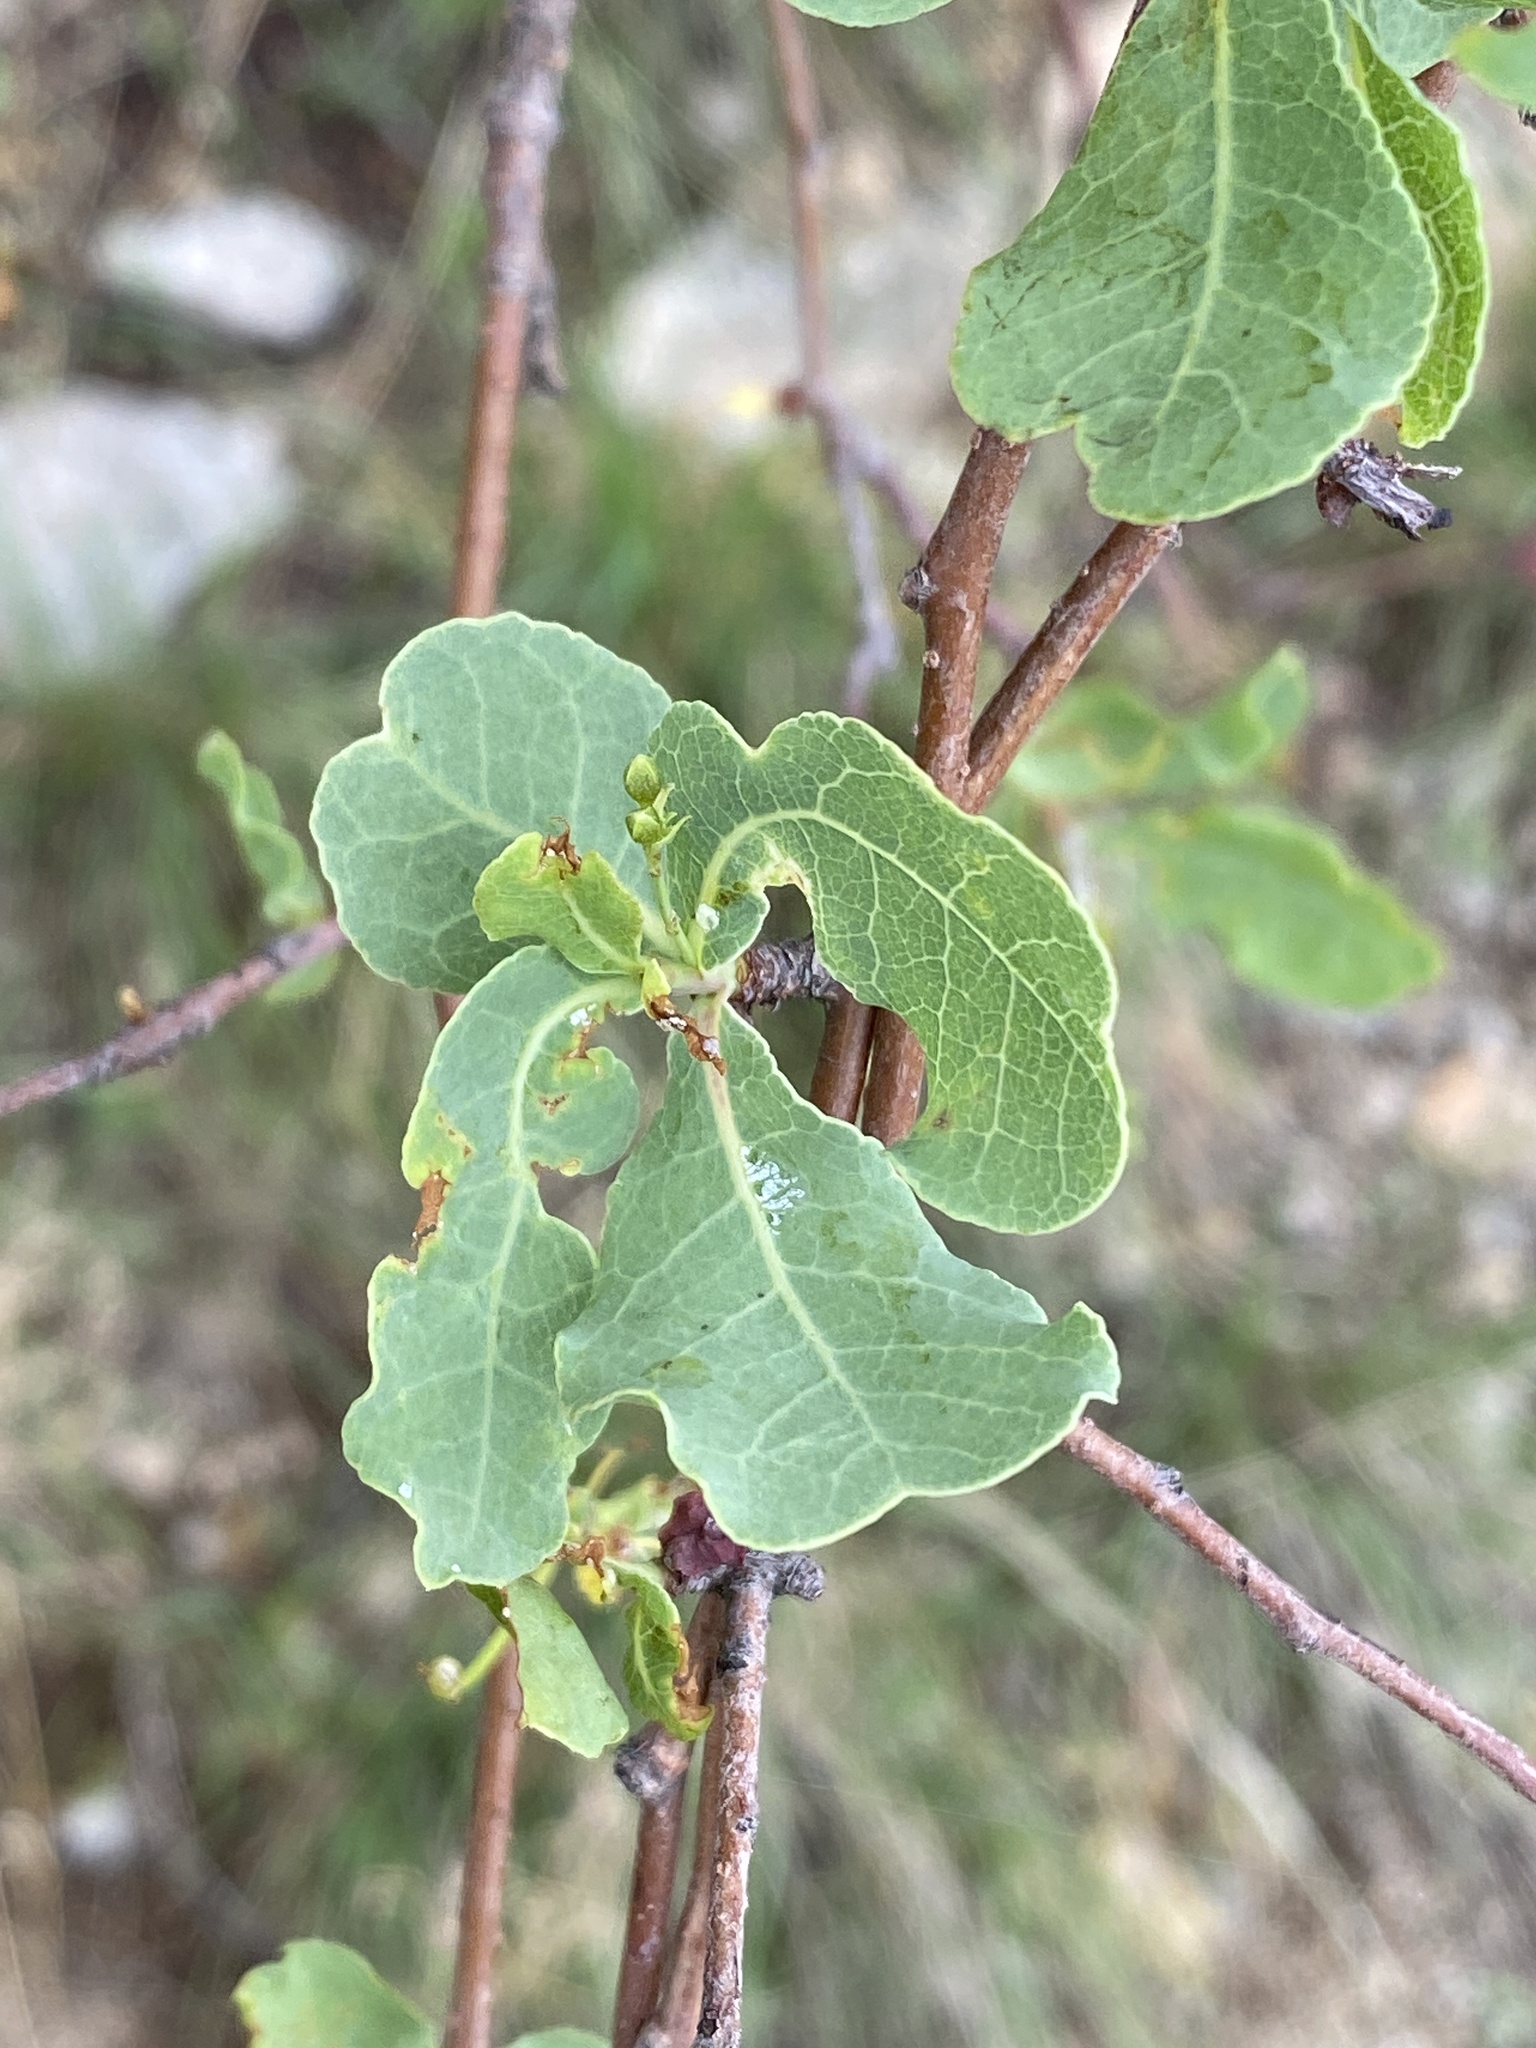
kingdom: Plantae
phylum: Tracheophyta
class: Magnoliopsida
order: Sapindales
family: Burseraceae
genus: Commiphora
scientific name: Commiphora glaucescens
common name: Blue-leaved corkwood
